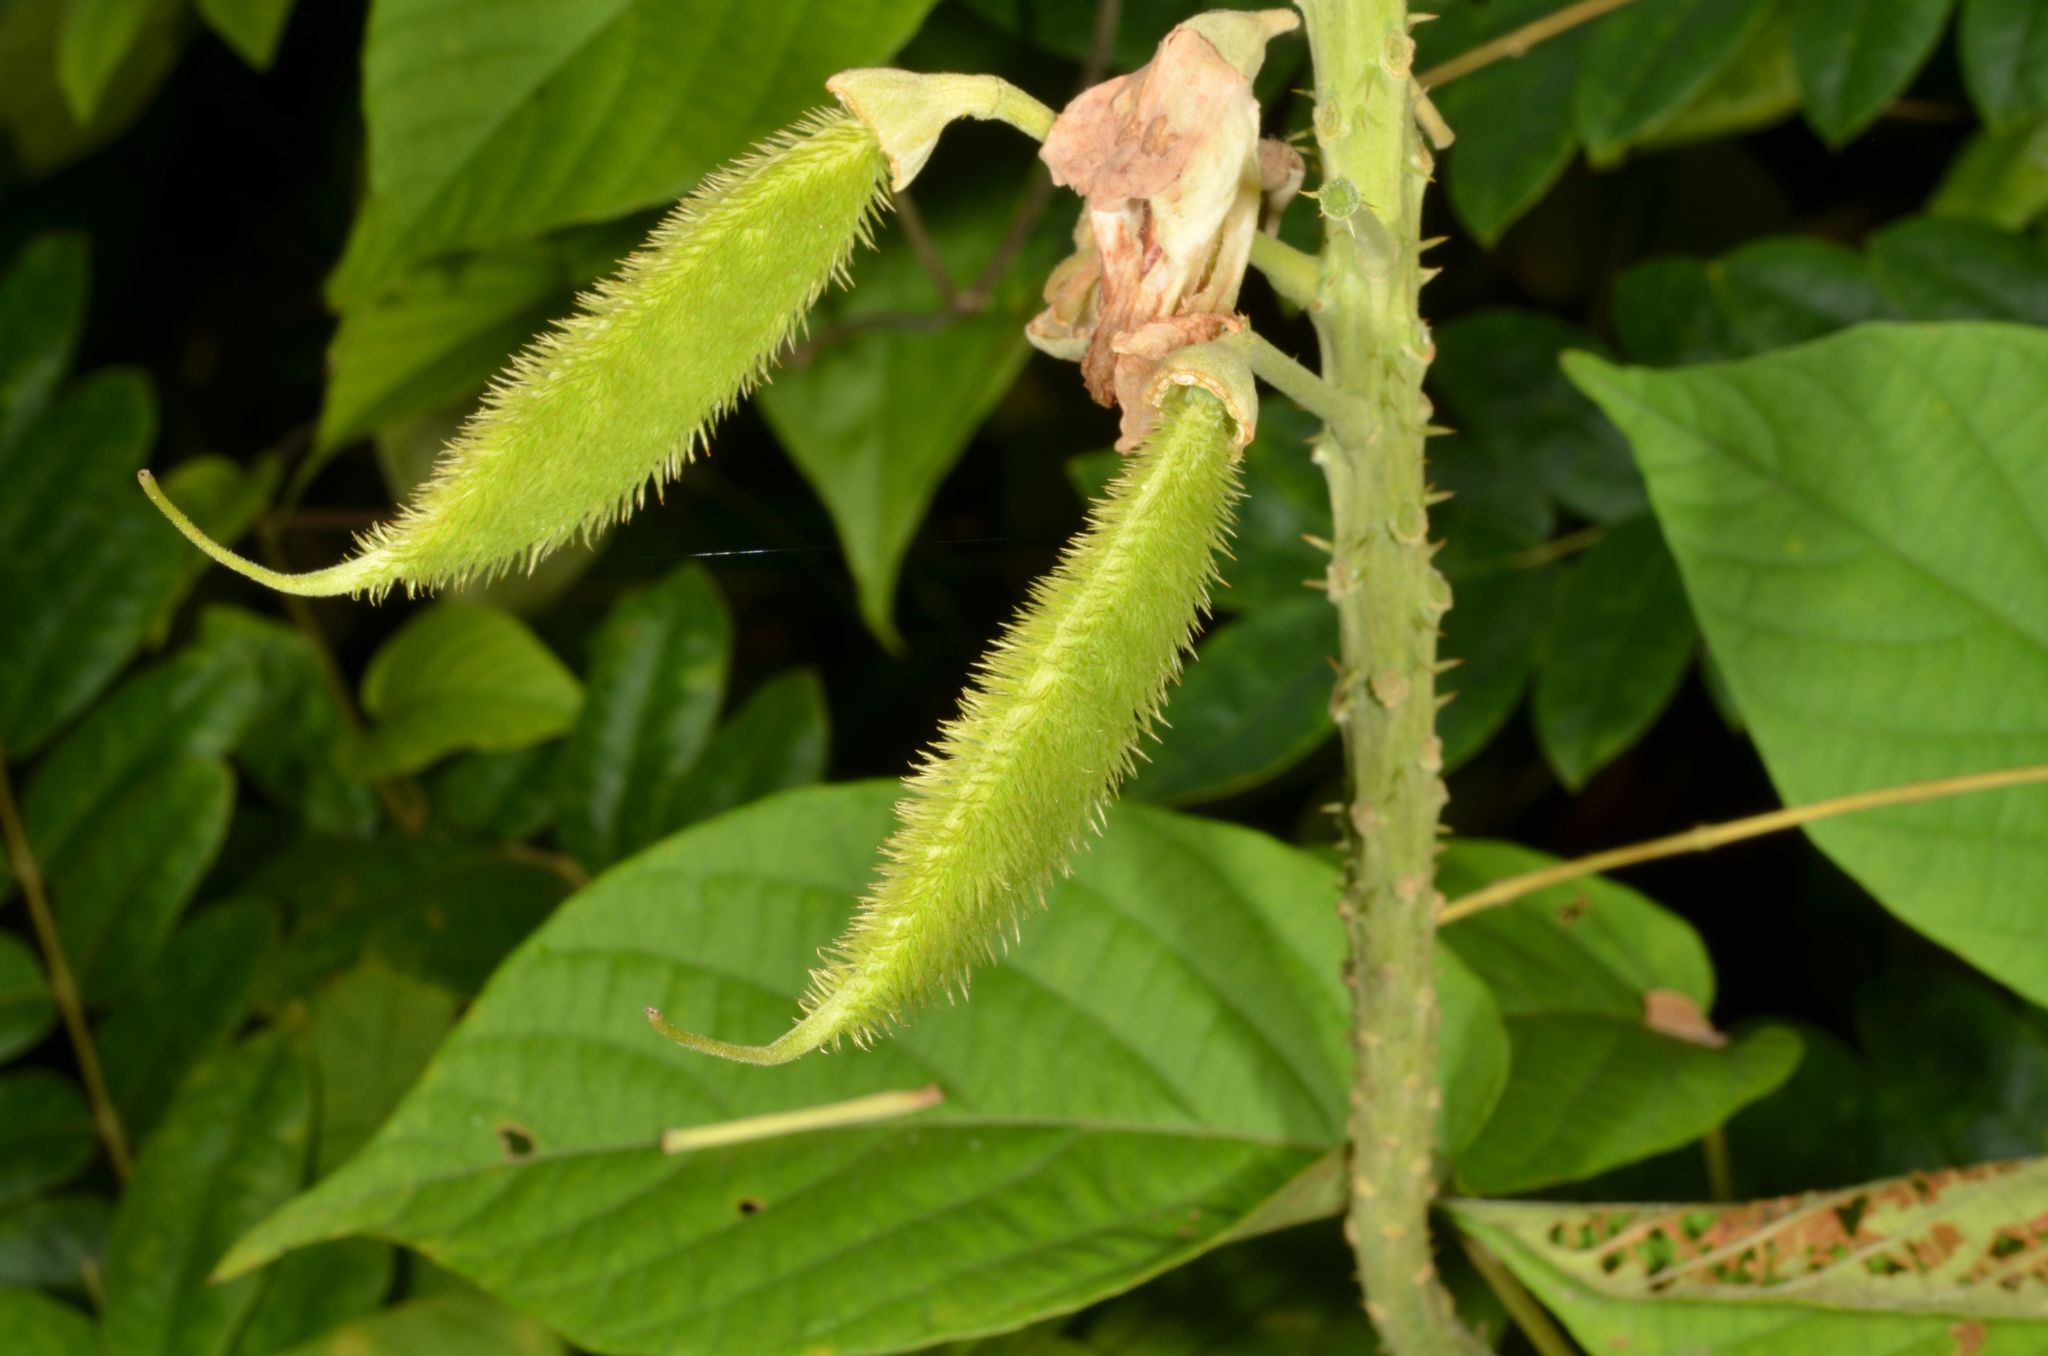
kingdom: Plantae
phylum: Tracheophyta
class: Magnoliopsida
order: Fabales
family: Fabaceae
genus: Guilandina
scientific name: Guilandina minax
